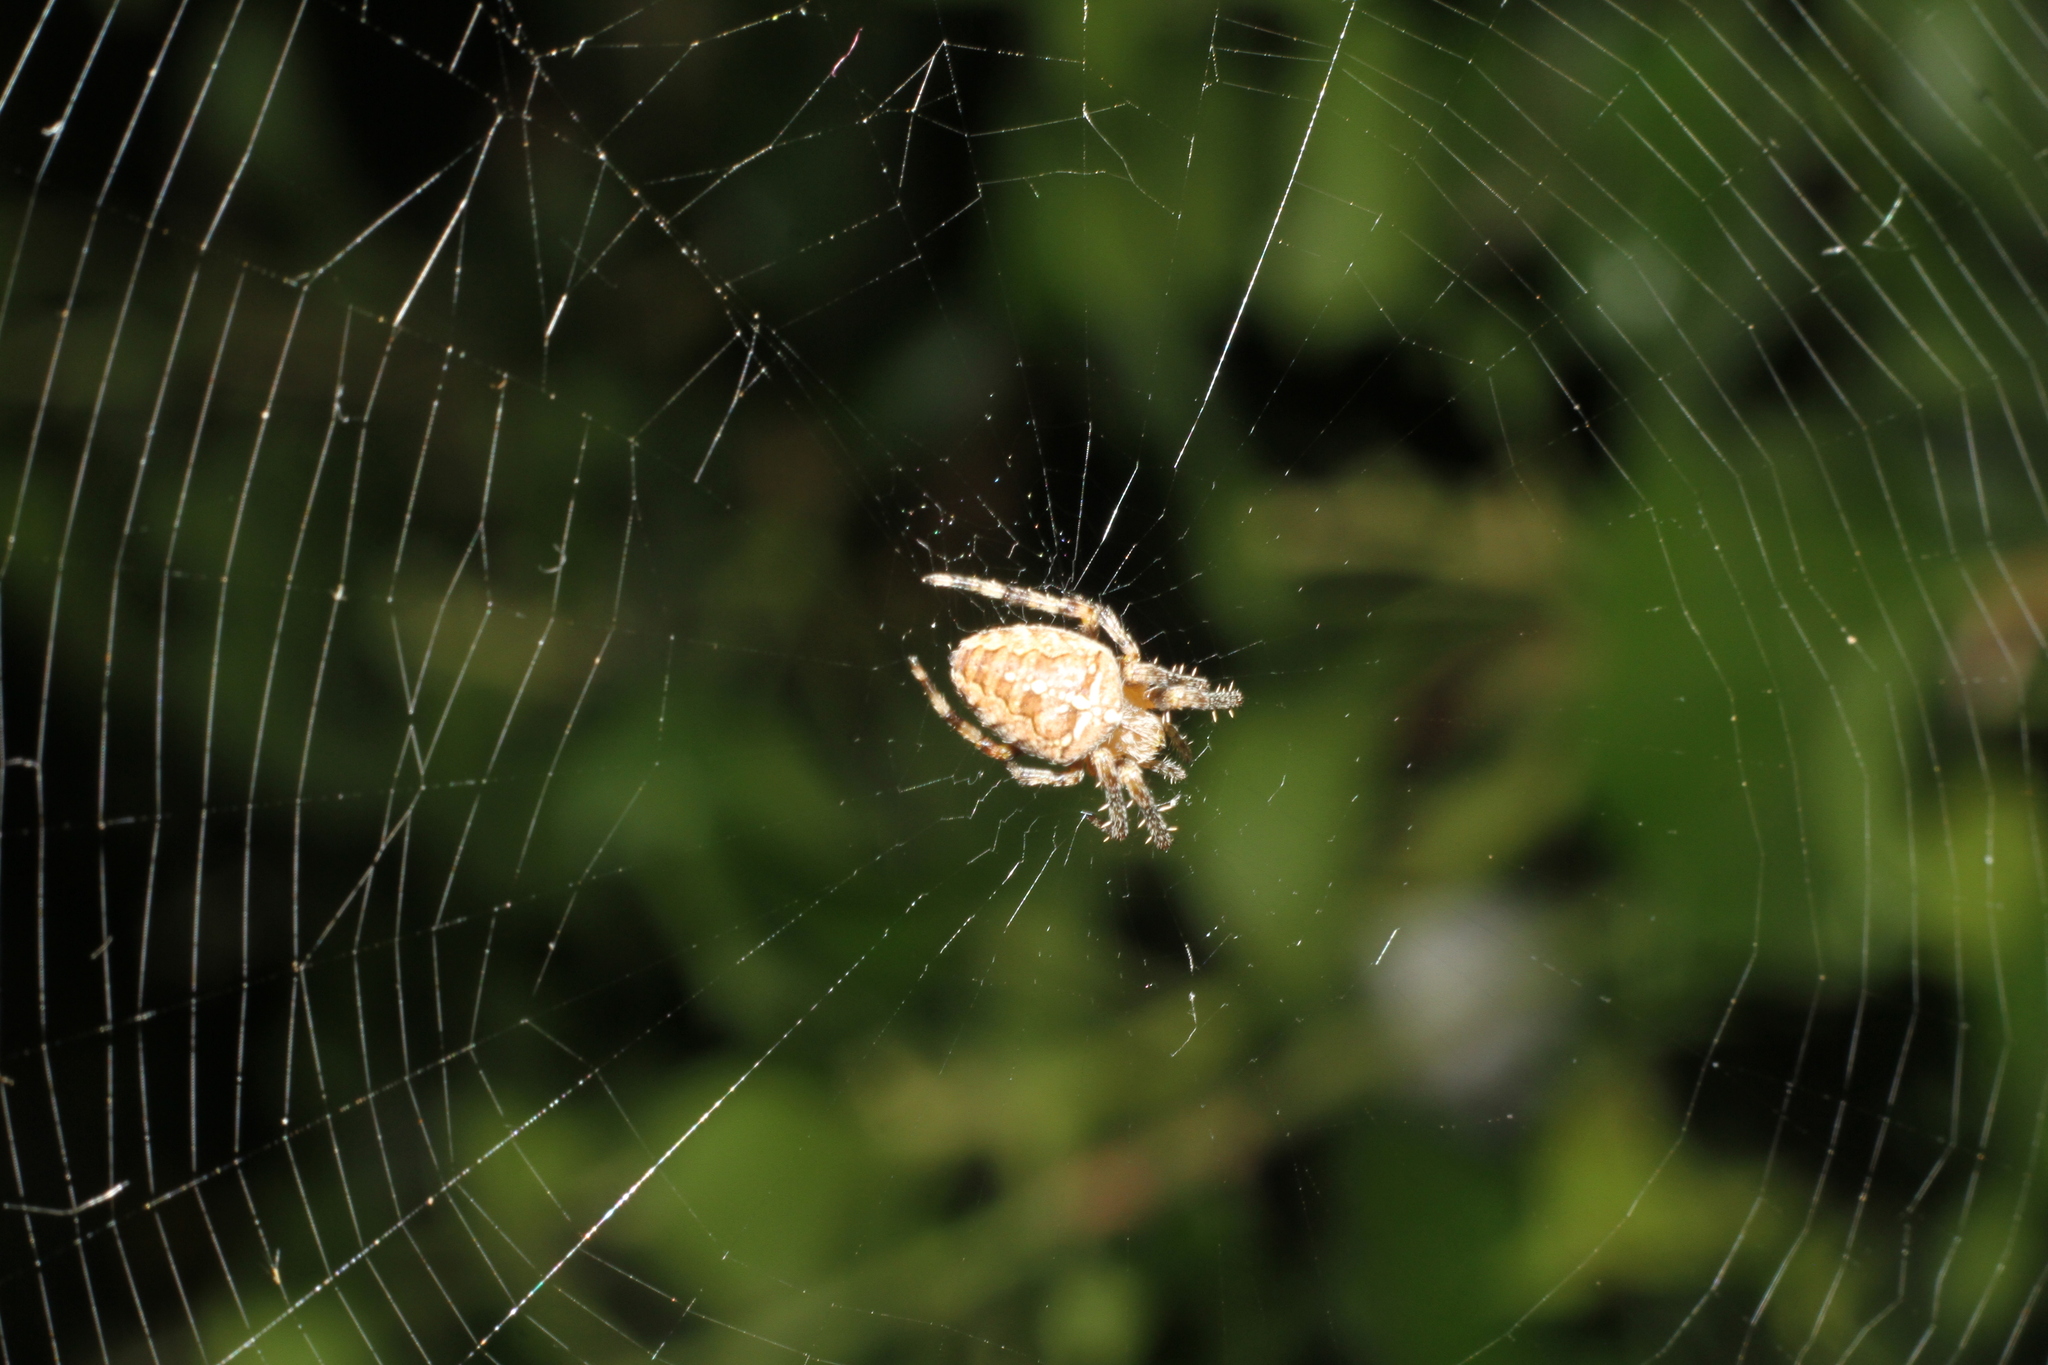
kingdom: Animalia
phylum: Arthropoda
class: Arachnida
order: Araneae
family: Araneidae
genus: Araneus
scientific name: Araneus diadematus
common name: Cross orbweaver
